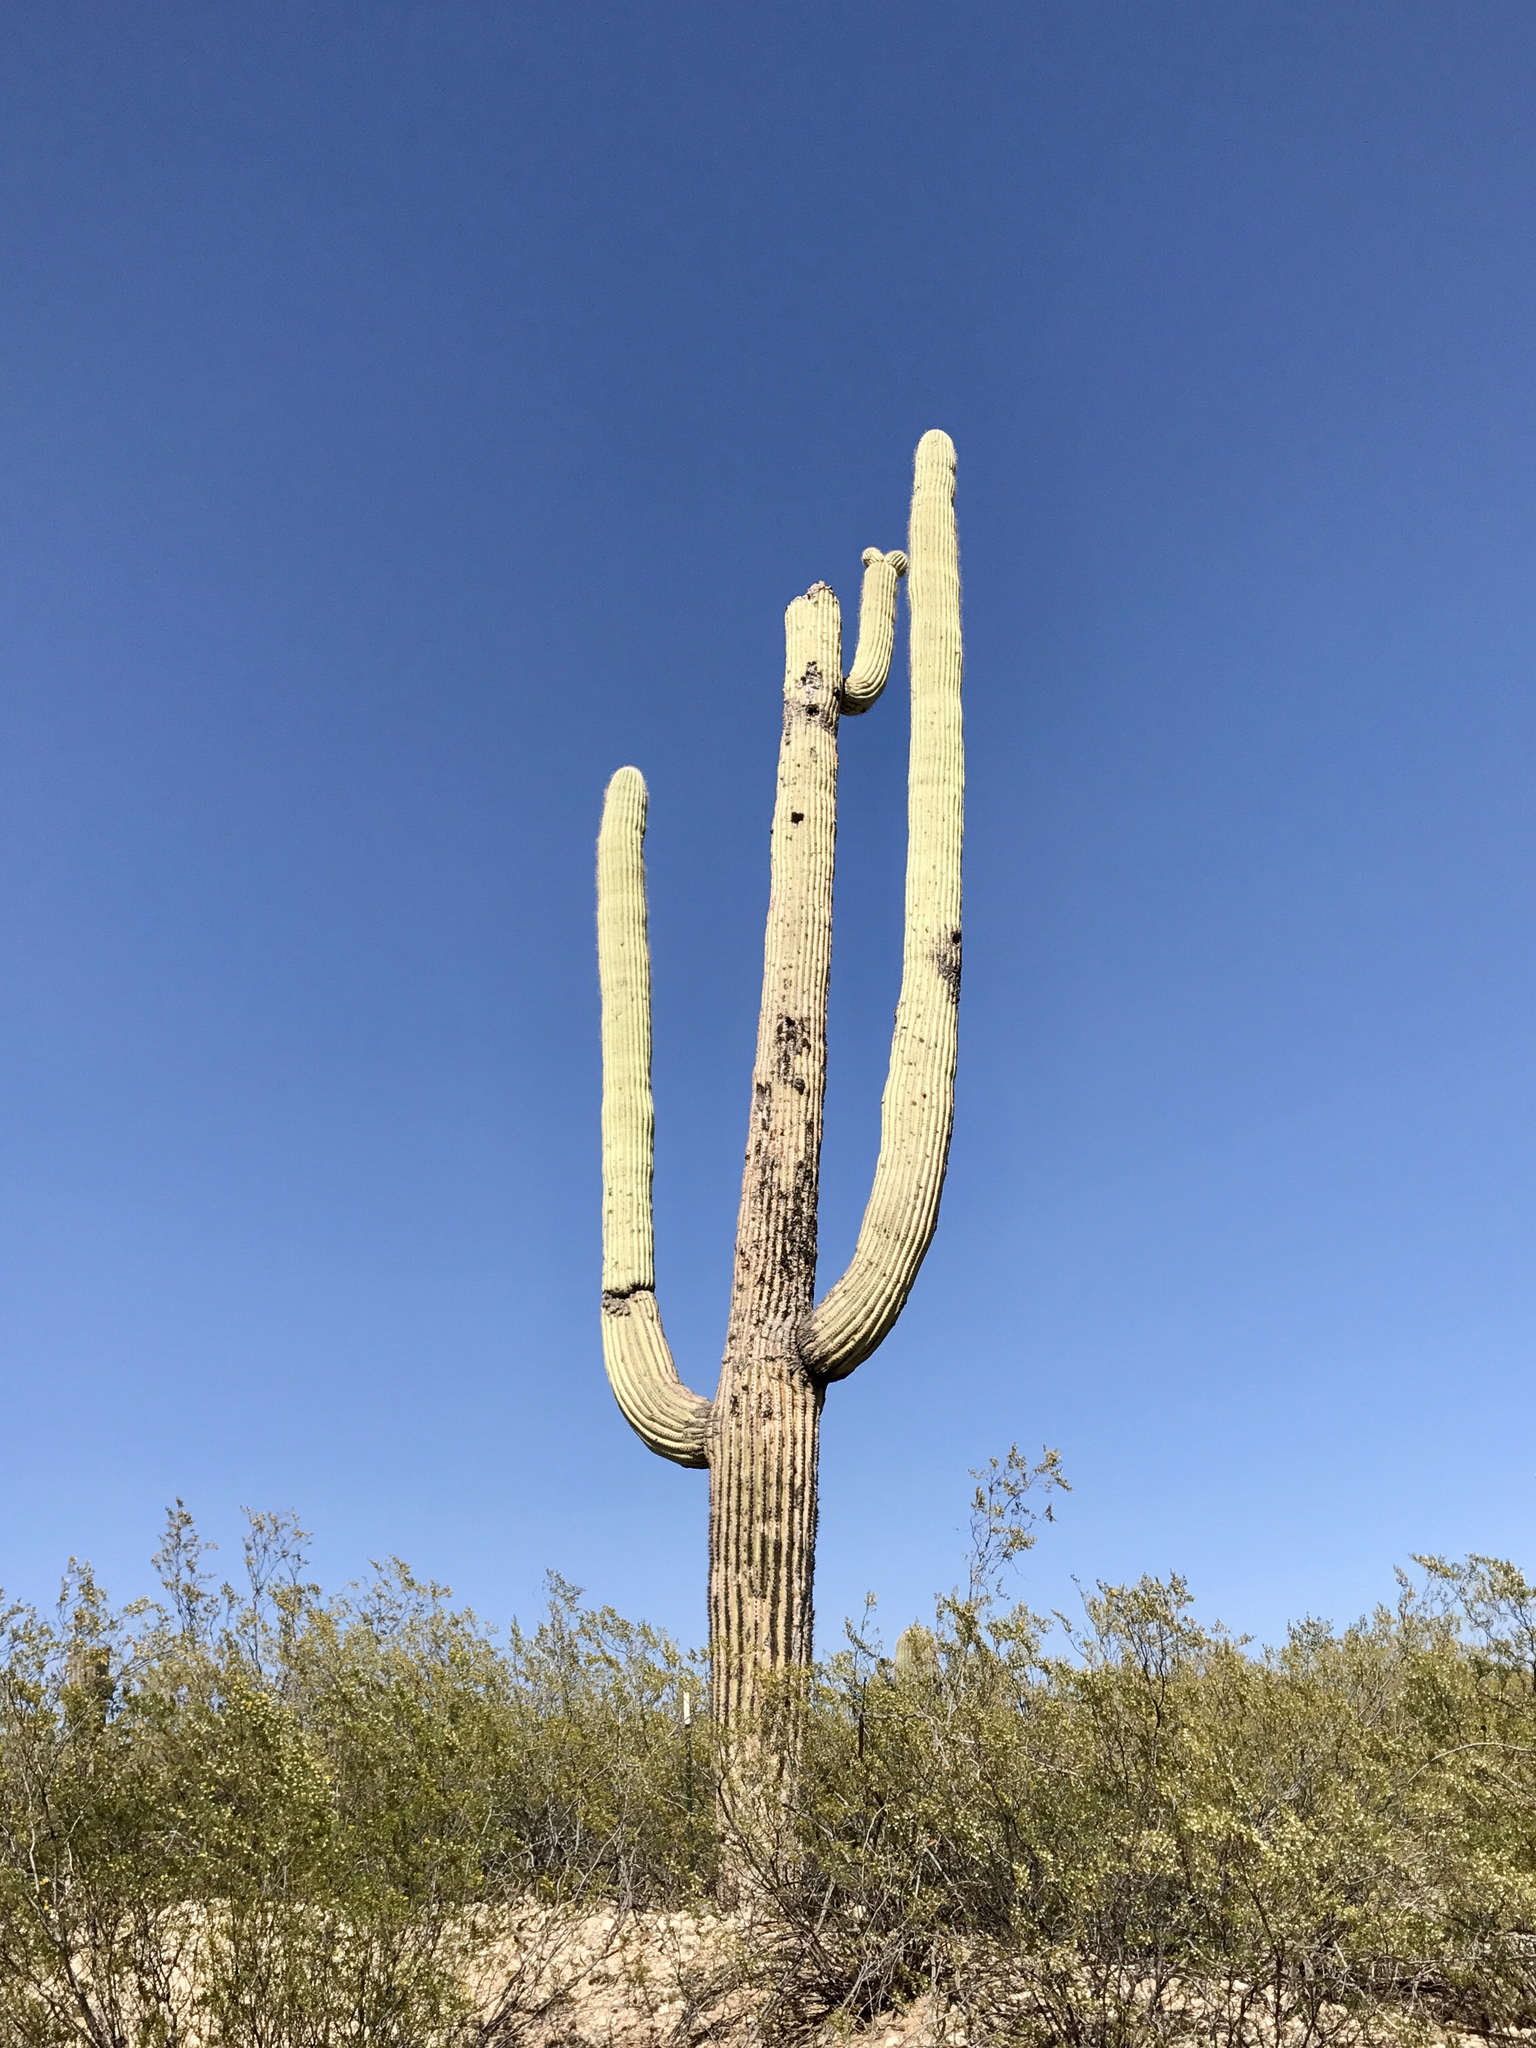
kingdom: Plantae
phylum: Tracheophyta
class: Magnoliopsida
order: Caryophyllales
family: Cactaceae
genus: Carnegiea
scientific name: Carnegiea gigantea
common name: Saguaro
